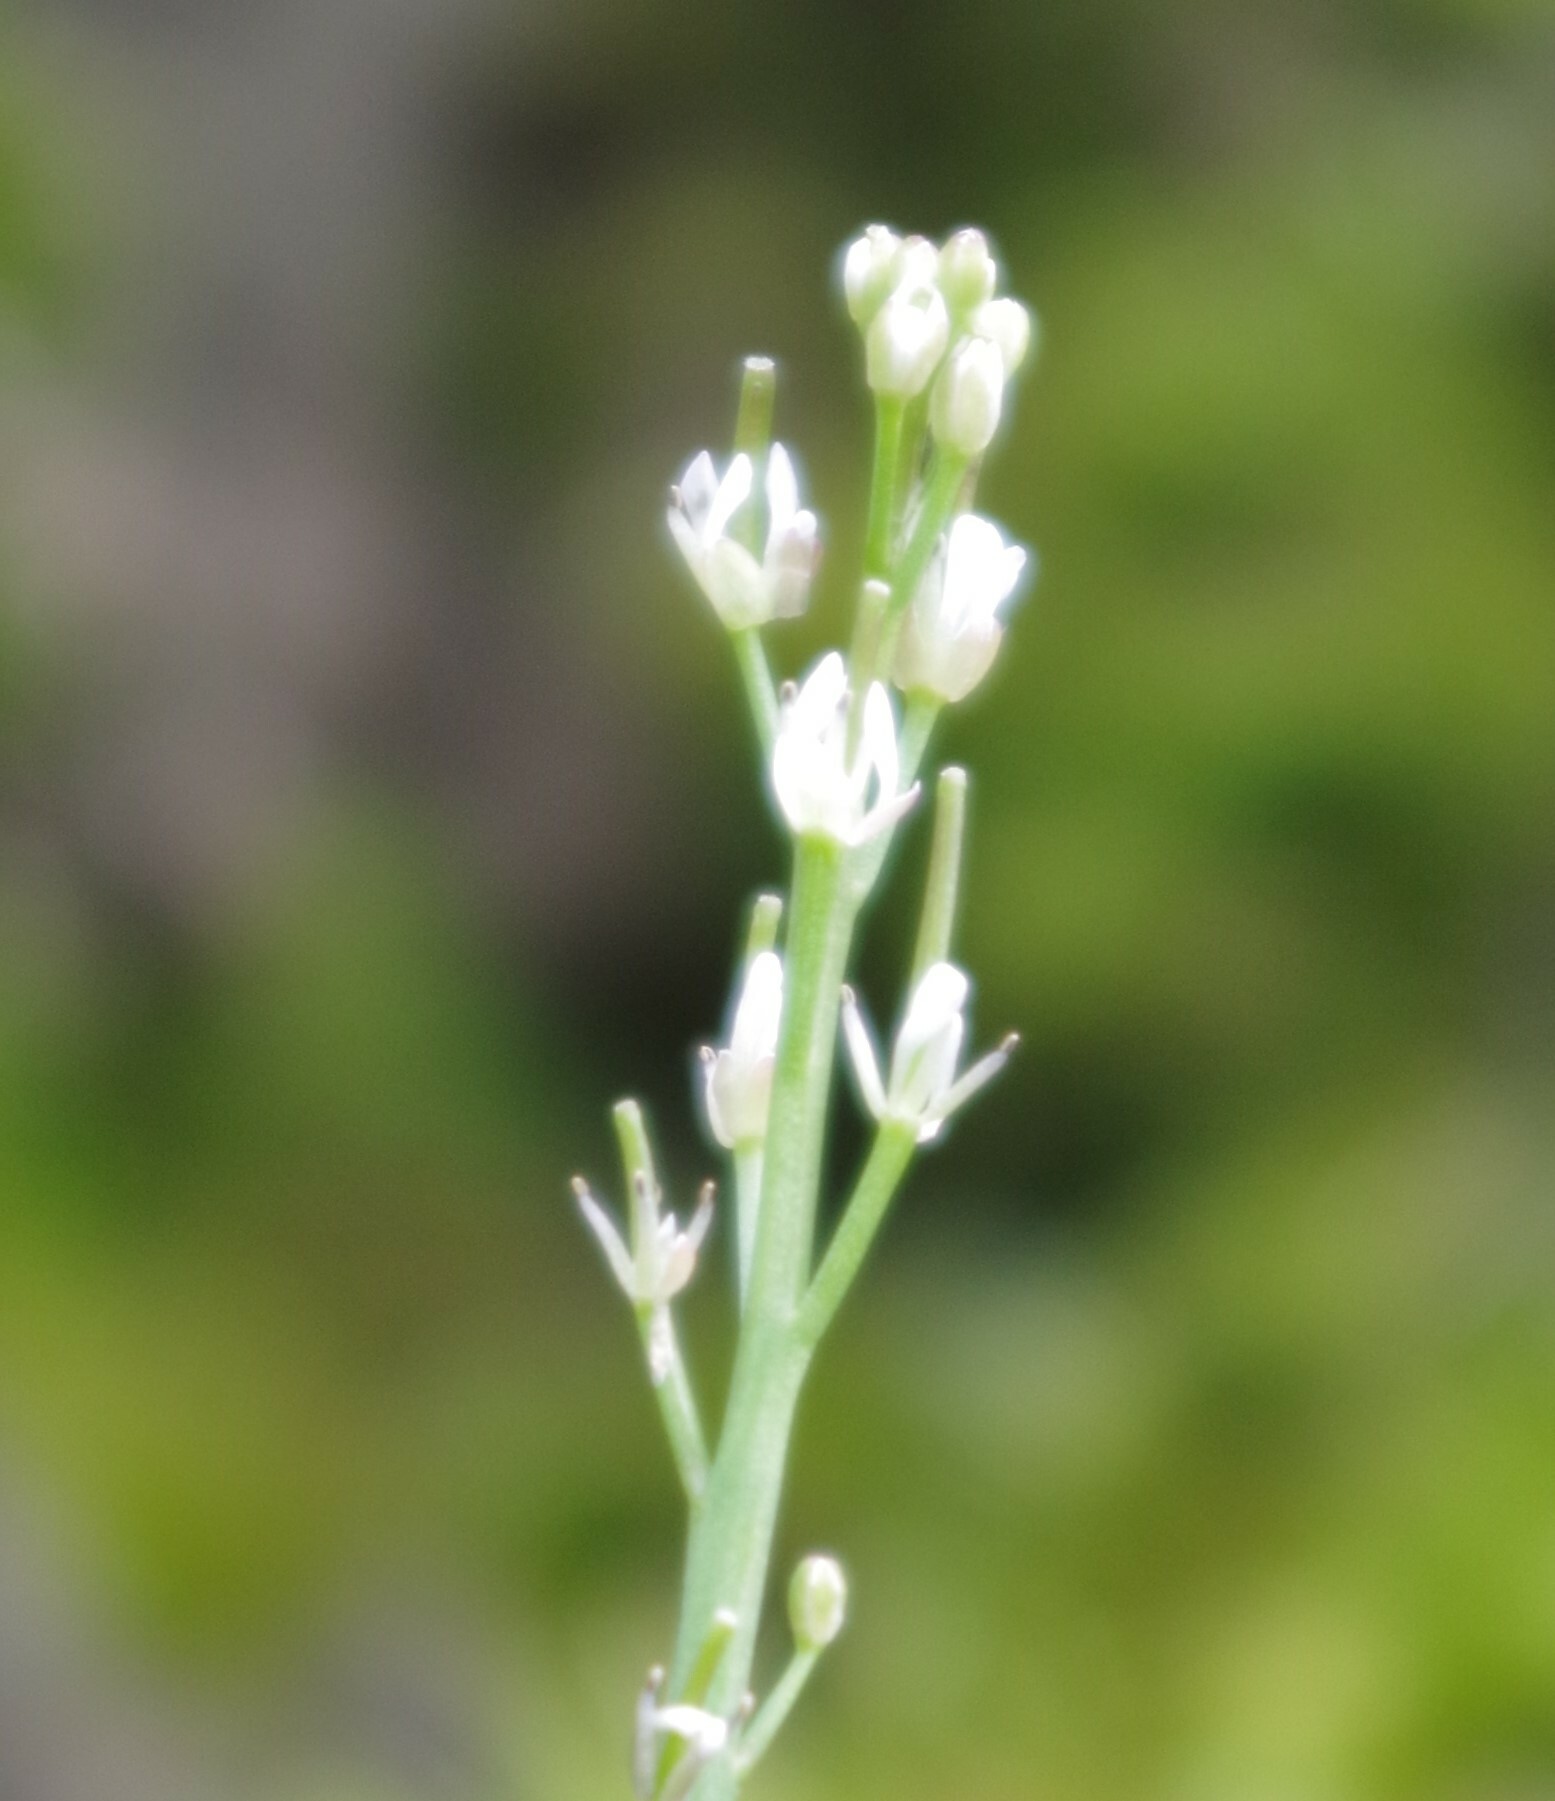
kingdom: Plantae
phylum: Tracheophyta
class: Magnoliopsida
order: Brassicales
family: Brassicaceae
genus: Cardamine
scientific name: Cardamine hirsuta
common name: Hairy bittercress
